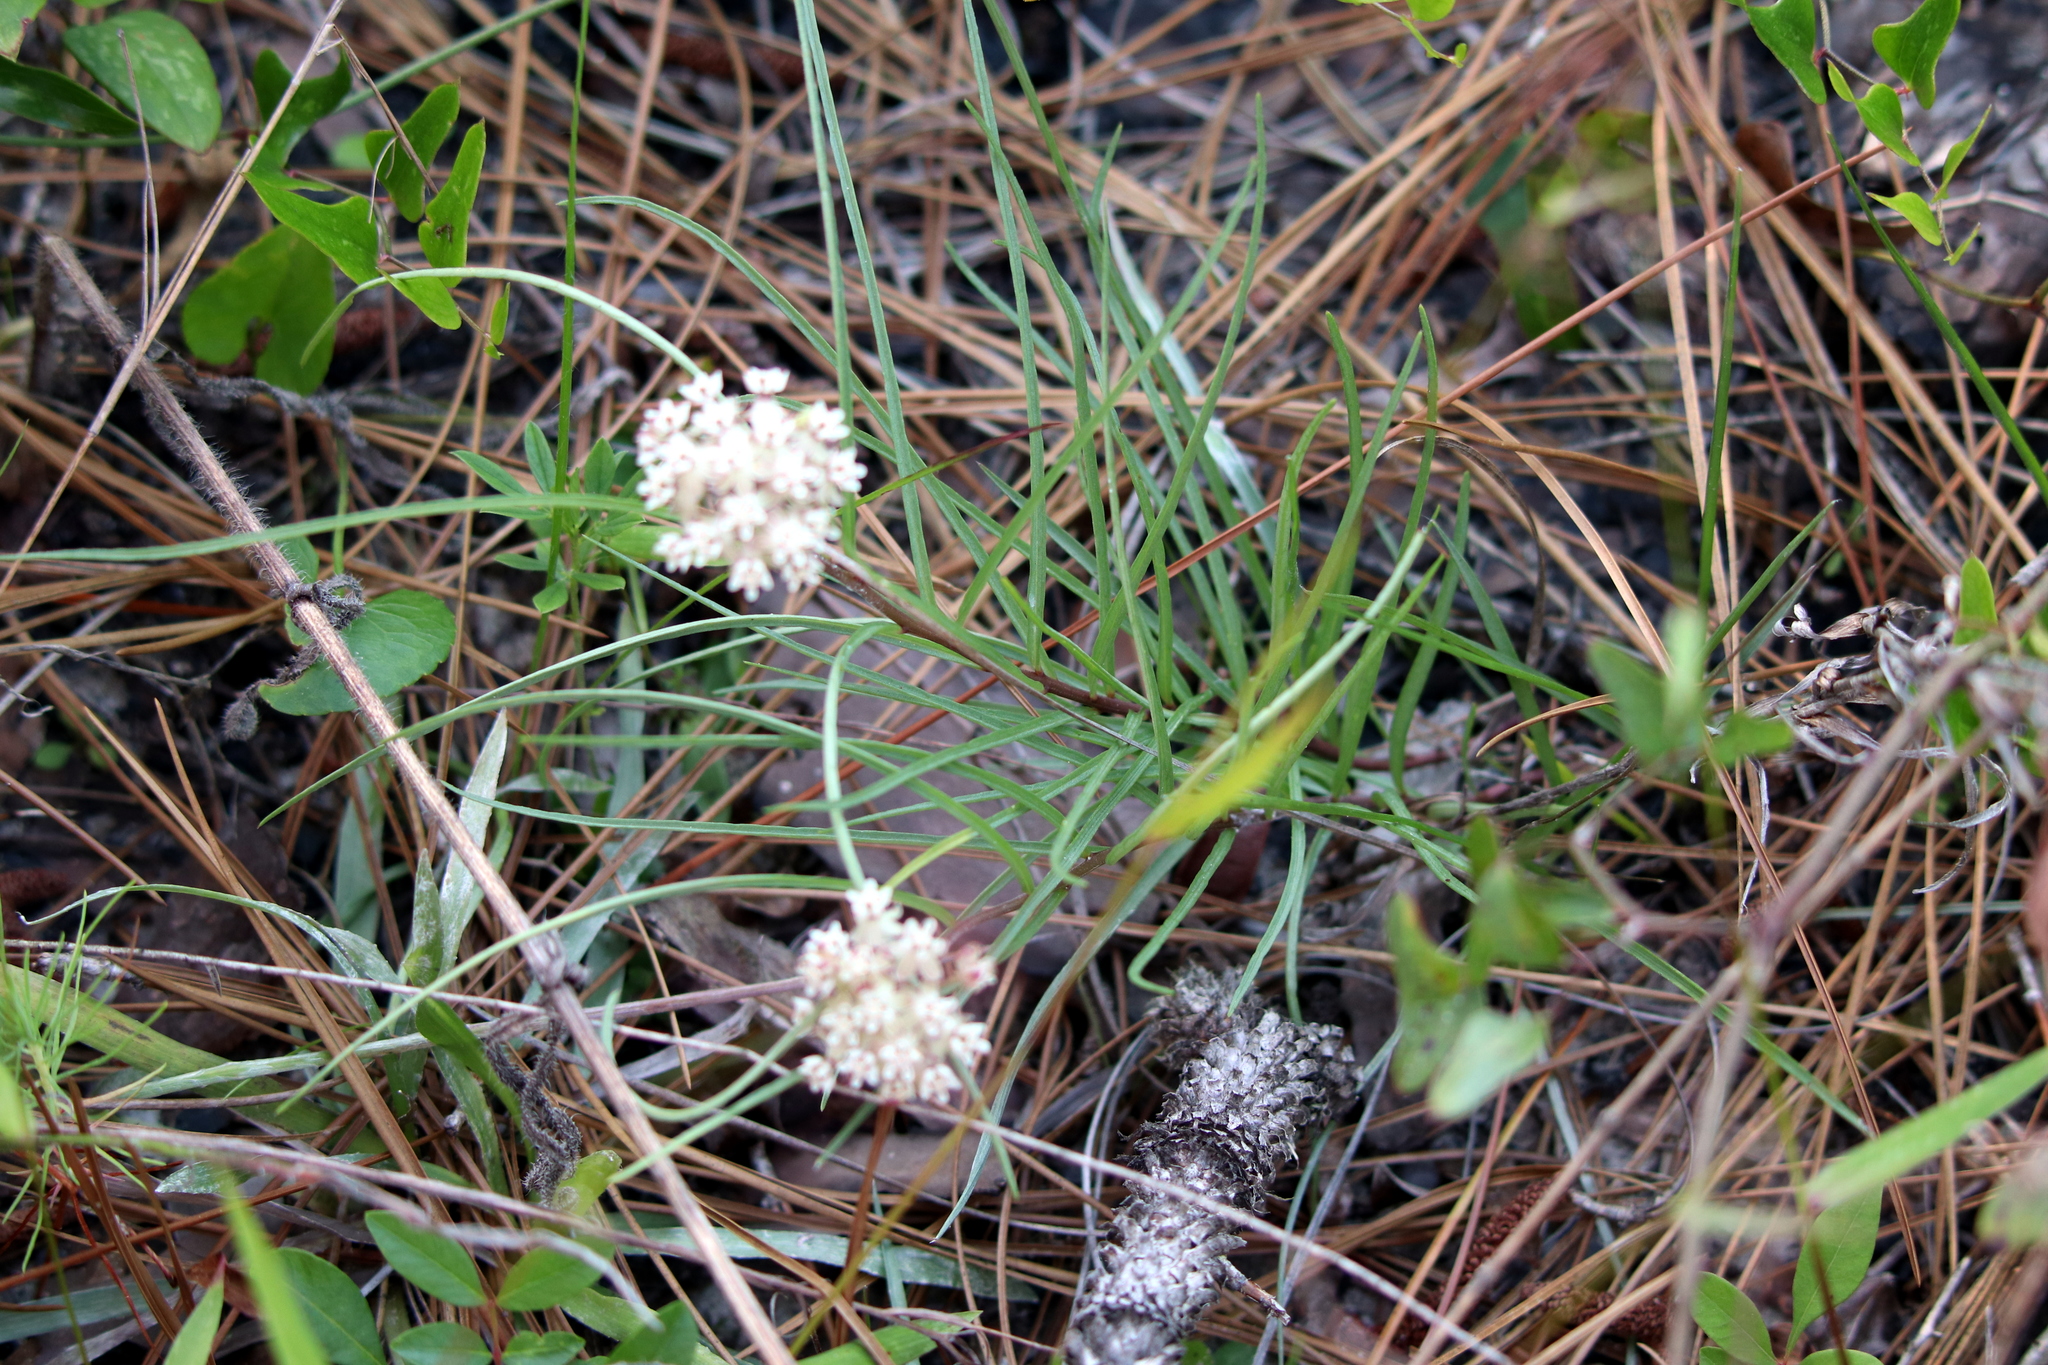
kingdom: Plantae
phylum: Tracheophyta
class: Magnoliopsida
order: Gentianales
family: Apocynaceae
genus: Asclepias
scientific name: Asclepias michauxii
